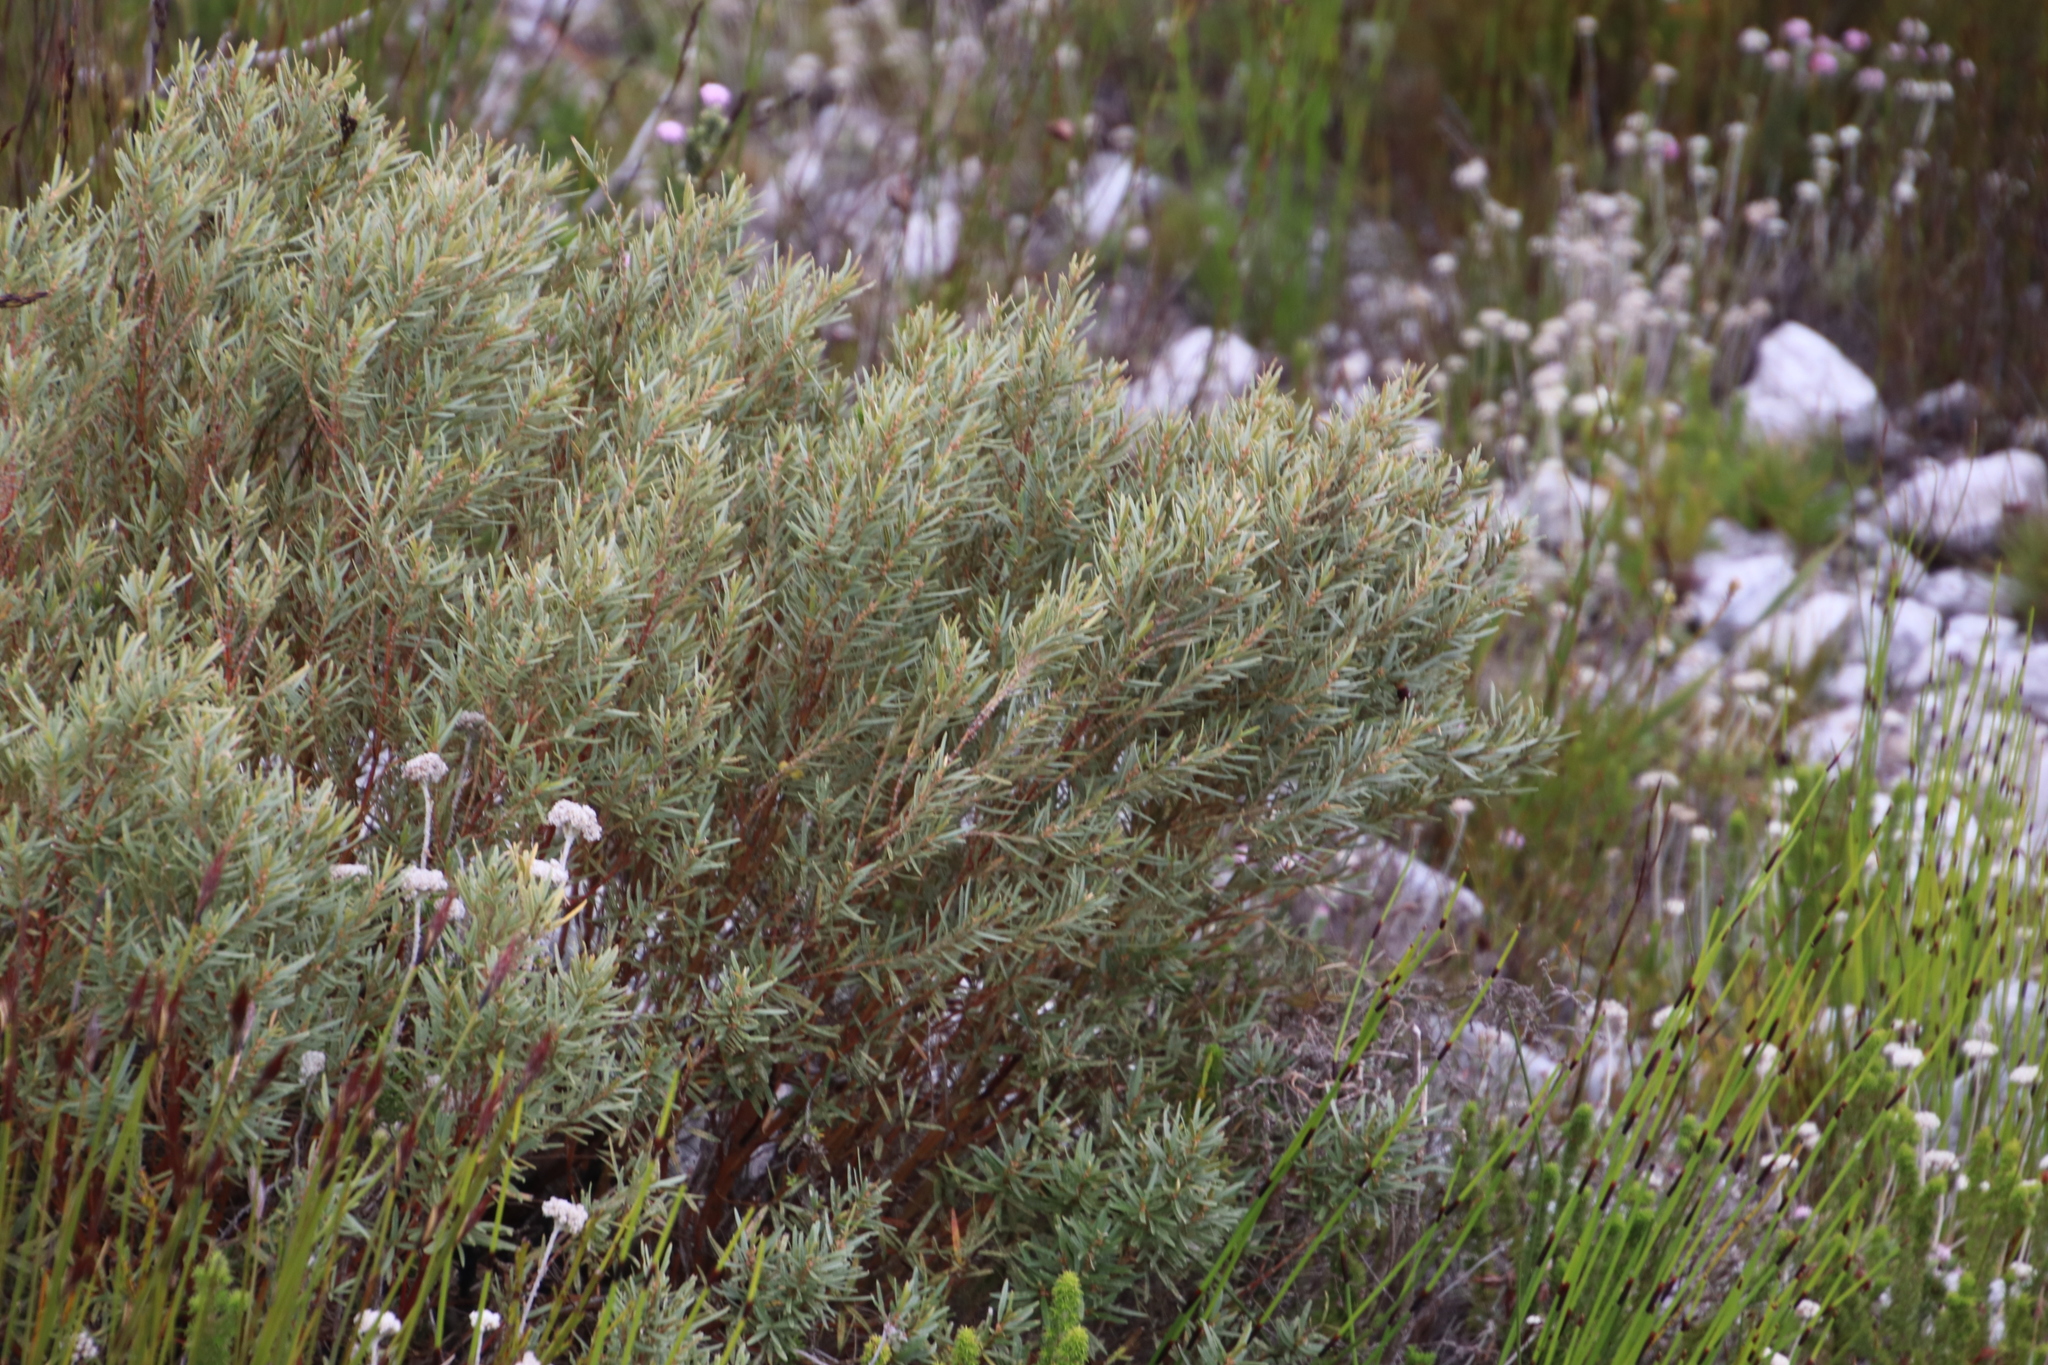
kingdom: Plantae
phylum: Tracheophyta
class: Magnoliopsida
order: Cornales
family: Grubbiaceae
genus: Grubbia
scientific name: Grubbia tomentosa
